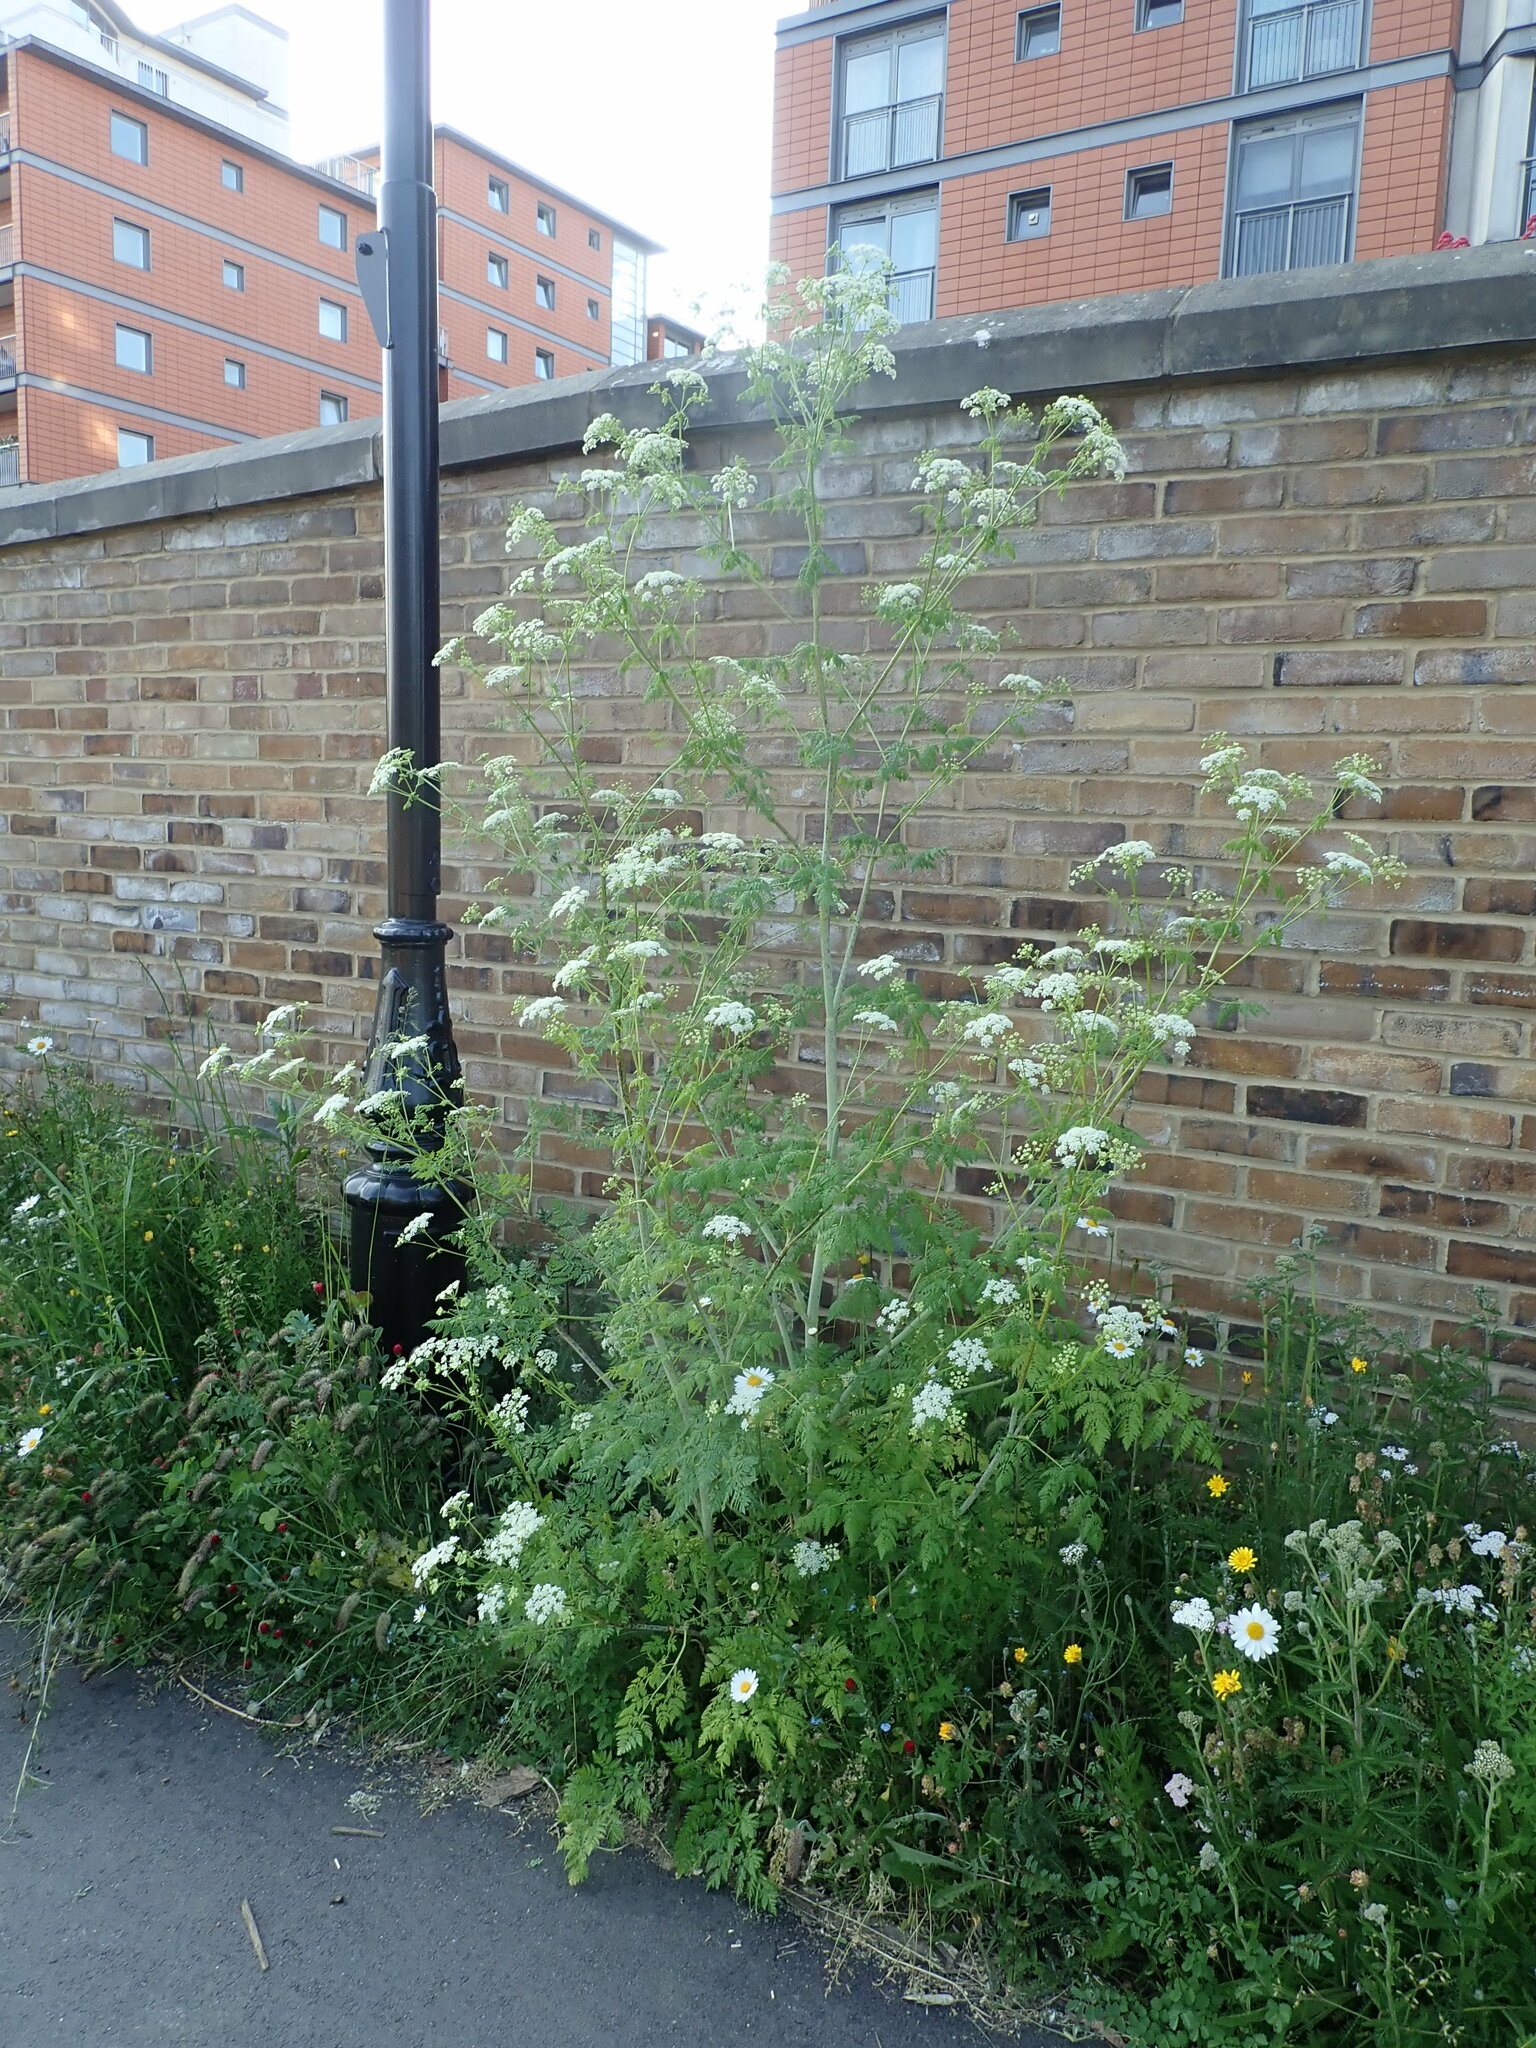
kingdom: Plantae
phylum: Tracheophyta
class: Magnoliopsida
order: Apiales
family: Apiaceae
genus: Conium
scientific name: Conium maculatum
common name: Hemlock
